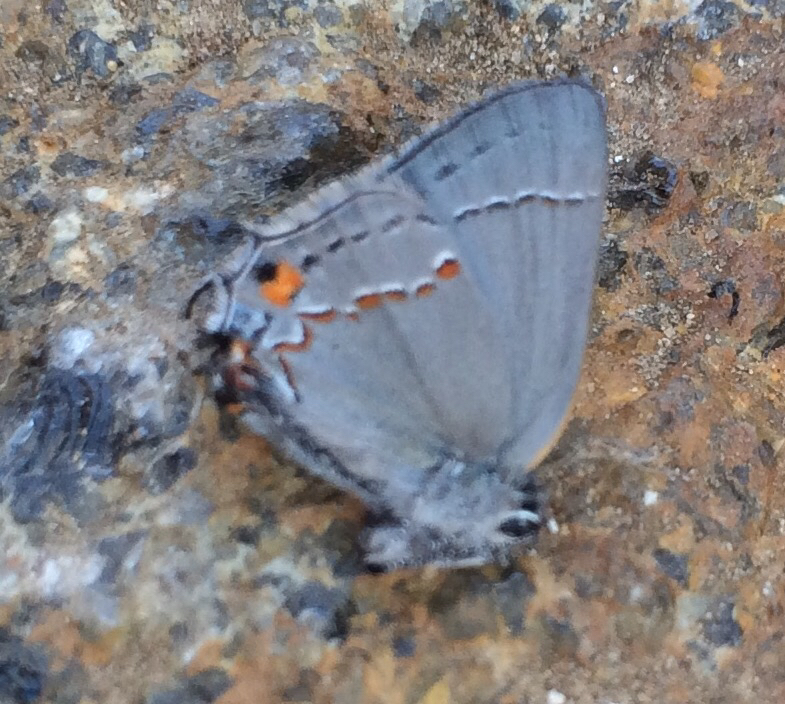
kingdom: Animalia
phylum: Arthropoda
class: Insecta
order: Lepidoptera
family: Lycaenidae
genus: Thecla
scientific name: Thecla pudica
